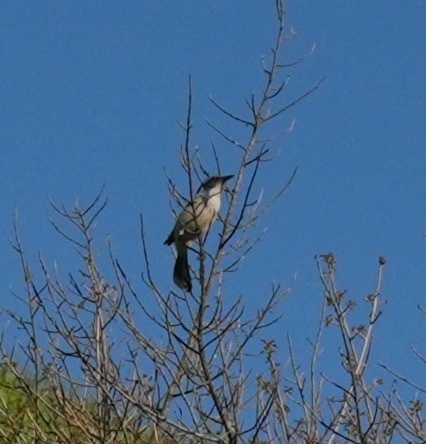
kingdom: Animalia
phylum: Chordata
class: Aves
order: Passeriformes
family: Corvidae
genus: Aphelocoma
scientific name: Aphelocoma californica
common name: California scrub-jay
